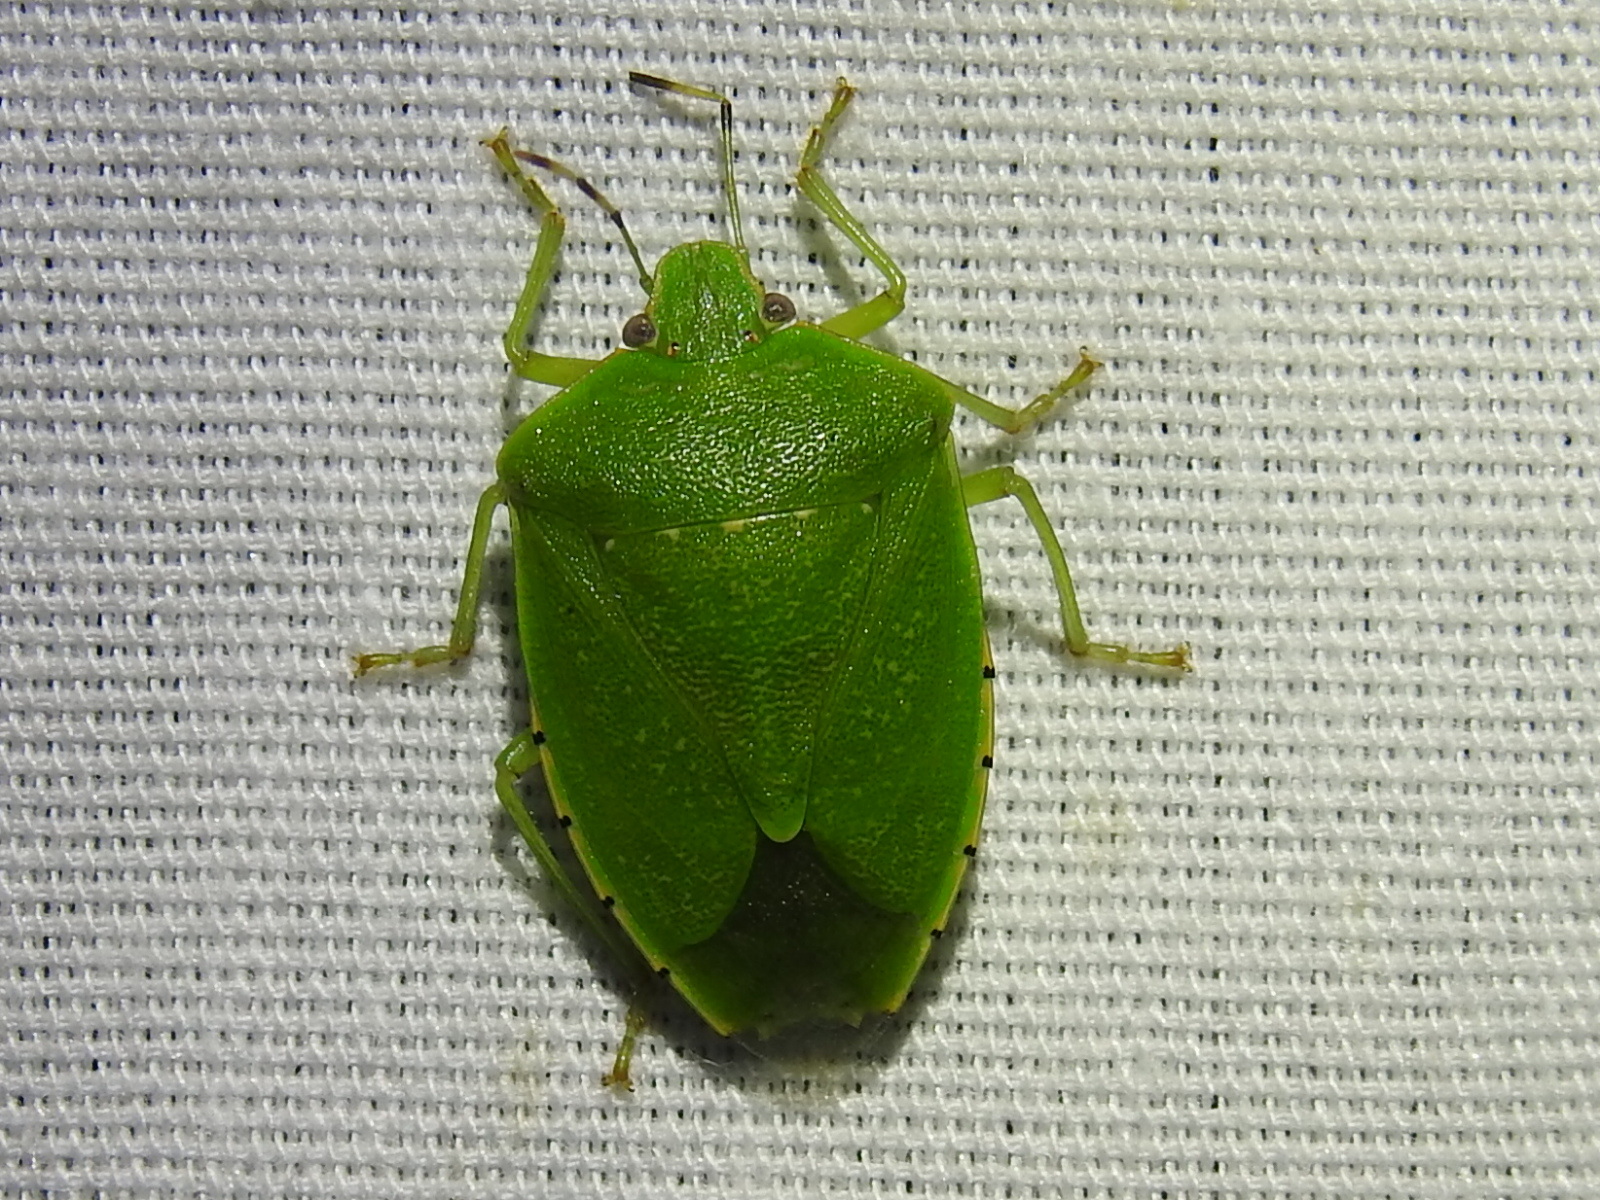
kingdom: Animalia
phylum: Arthropoda
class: Insecta
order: Hemiptera
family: Pentatomidae
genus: Chinavia
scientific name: Chinavia hilaris
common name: Green stink bug
